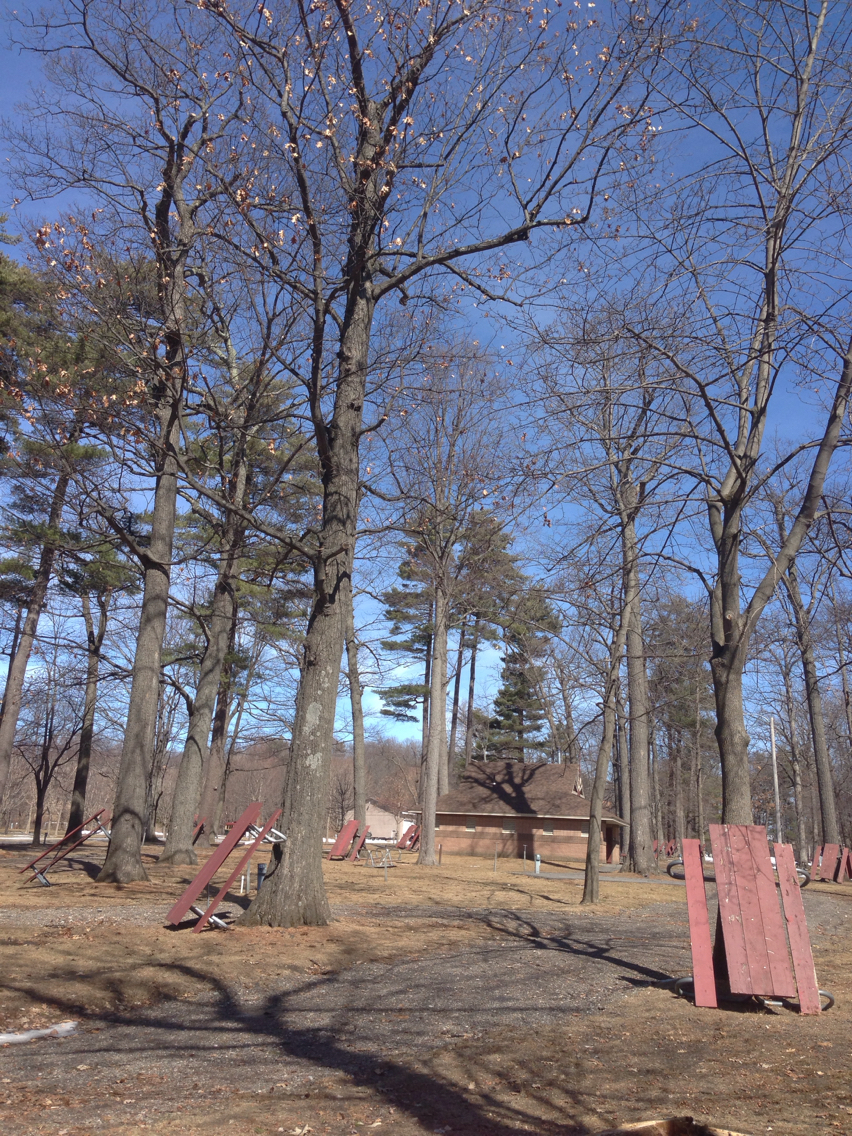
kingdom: Plantae
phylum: Tracheophyta
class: Magnoliopsida
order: Fagales
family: Fagaceae
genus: Quercus
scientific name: Quercus rubra
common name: Red oak
